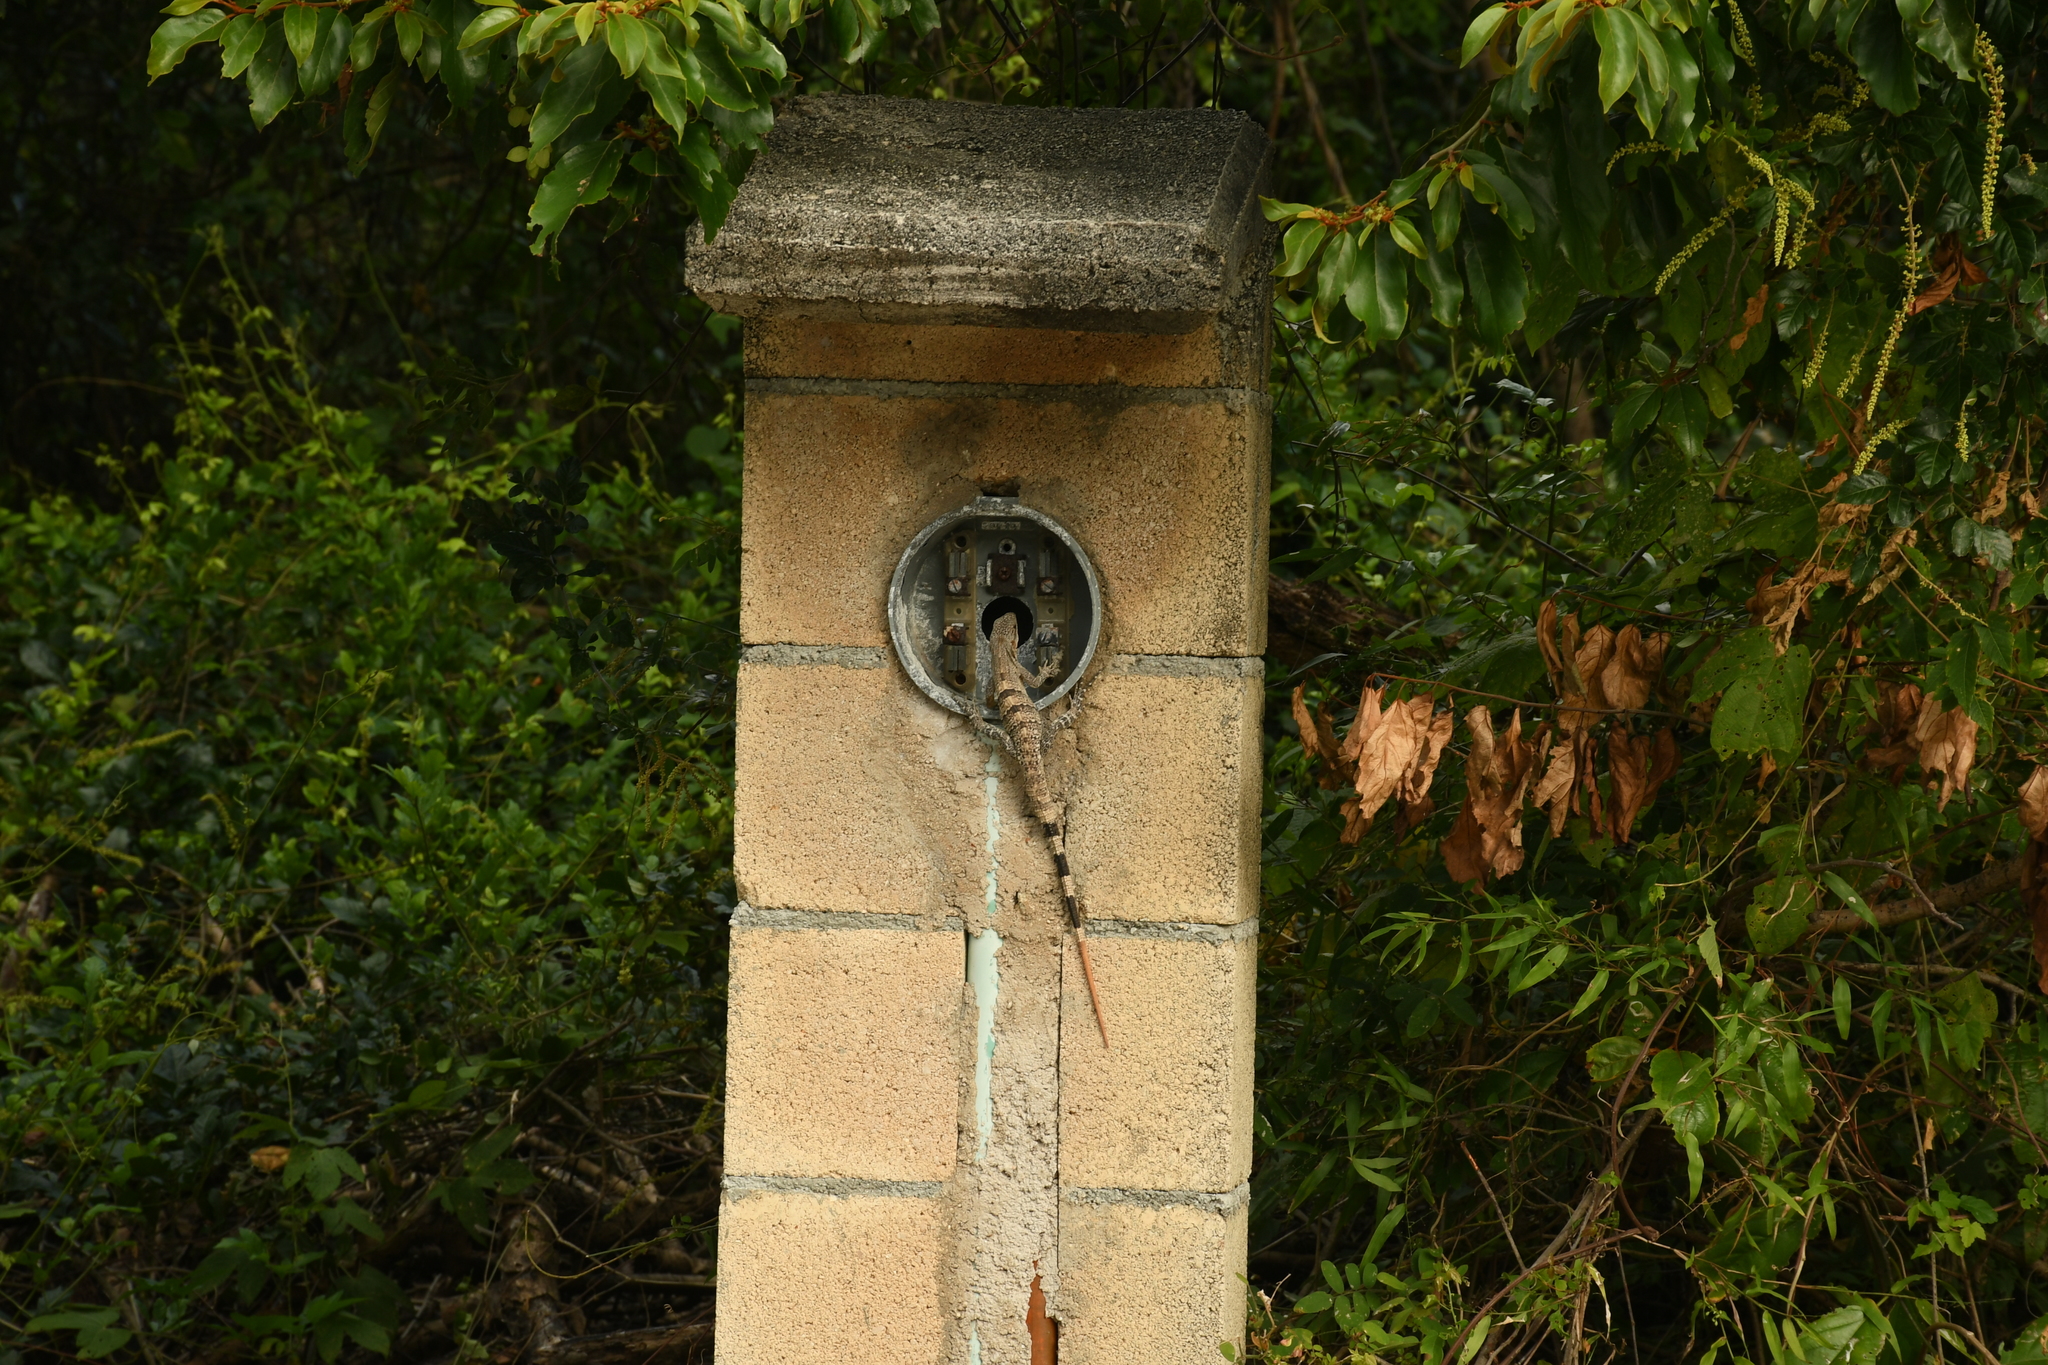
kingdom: Animalia
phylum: Chordata
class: Squamata
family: Iguanidae
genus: Ctenosaura
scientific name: Ctenosaura similis
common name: Black spiny-tailed iguana
